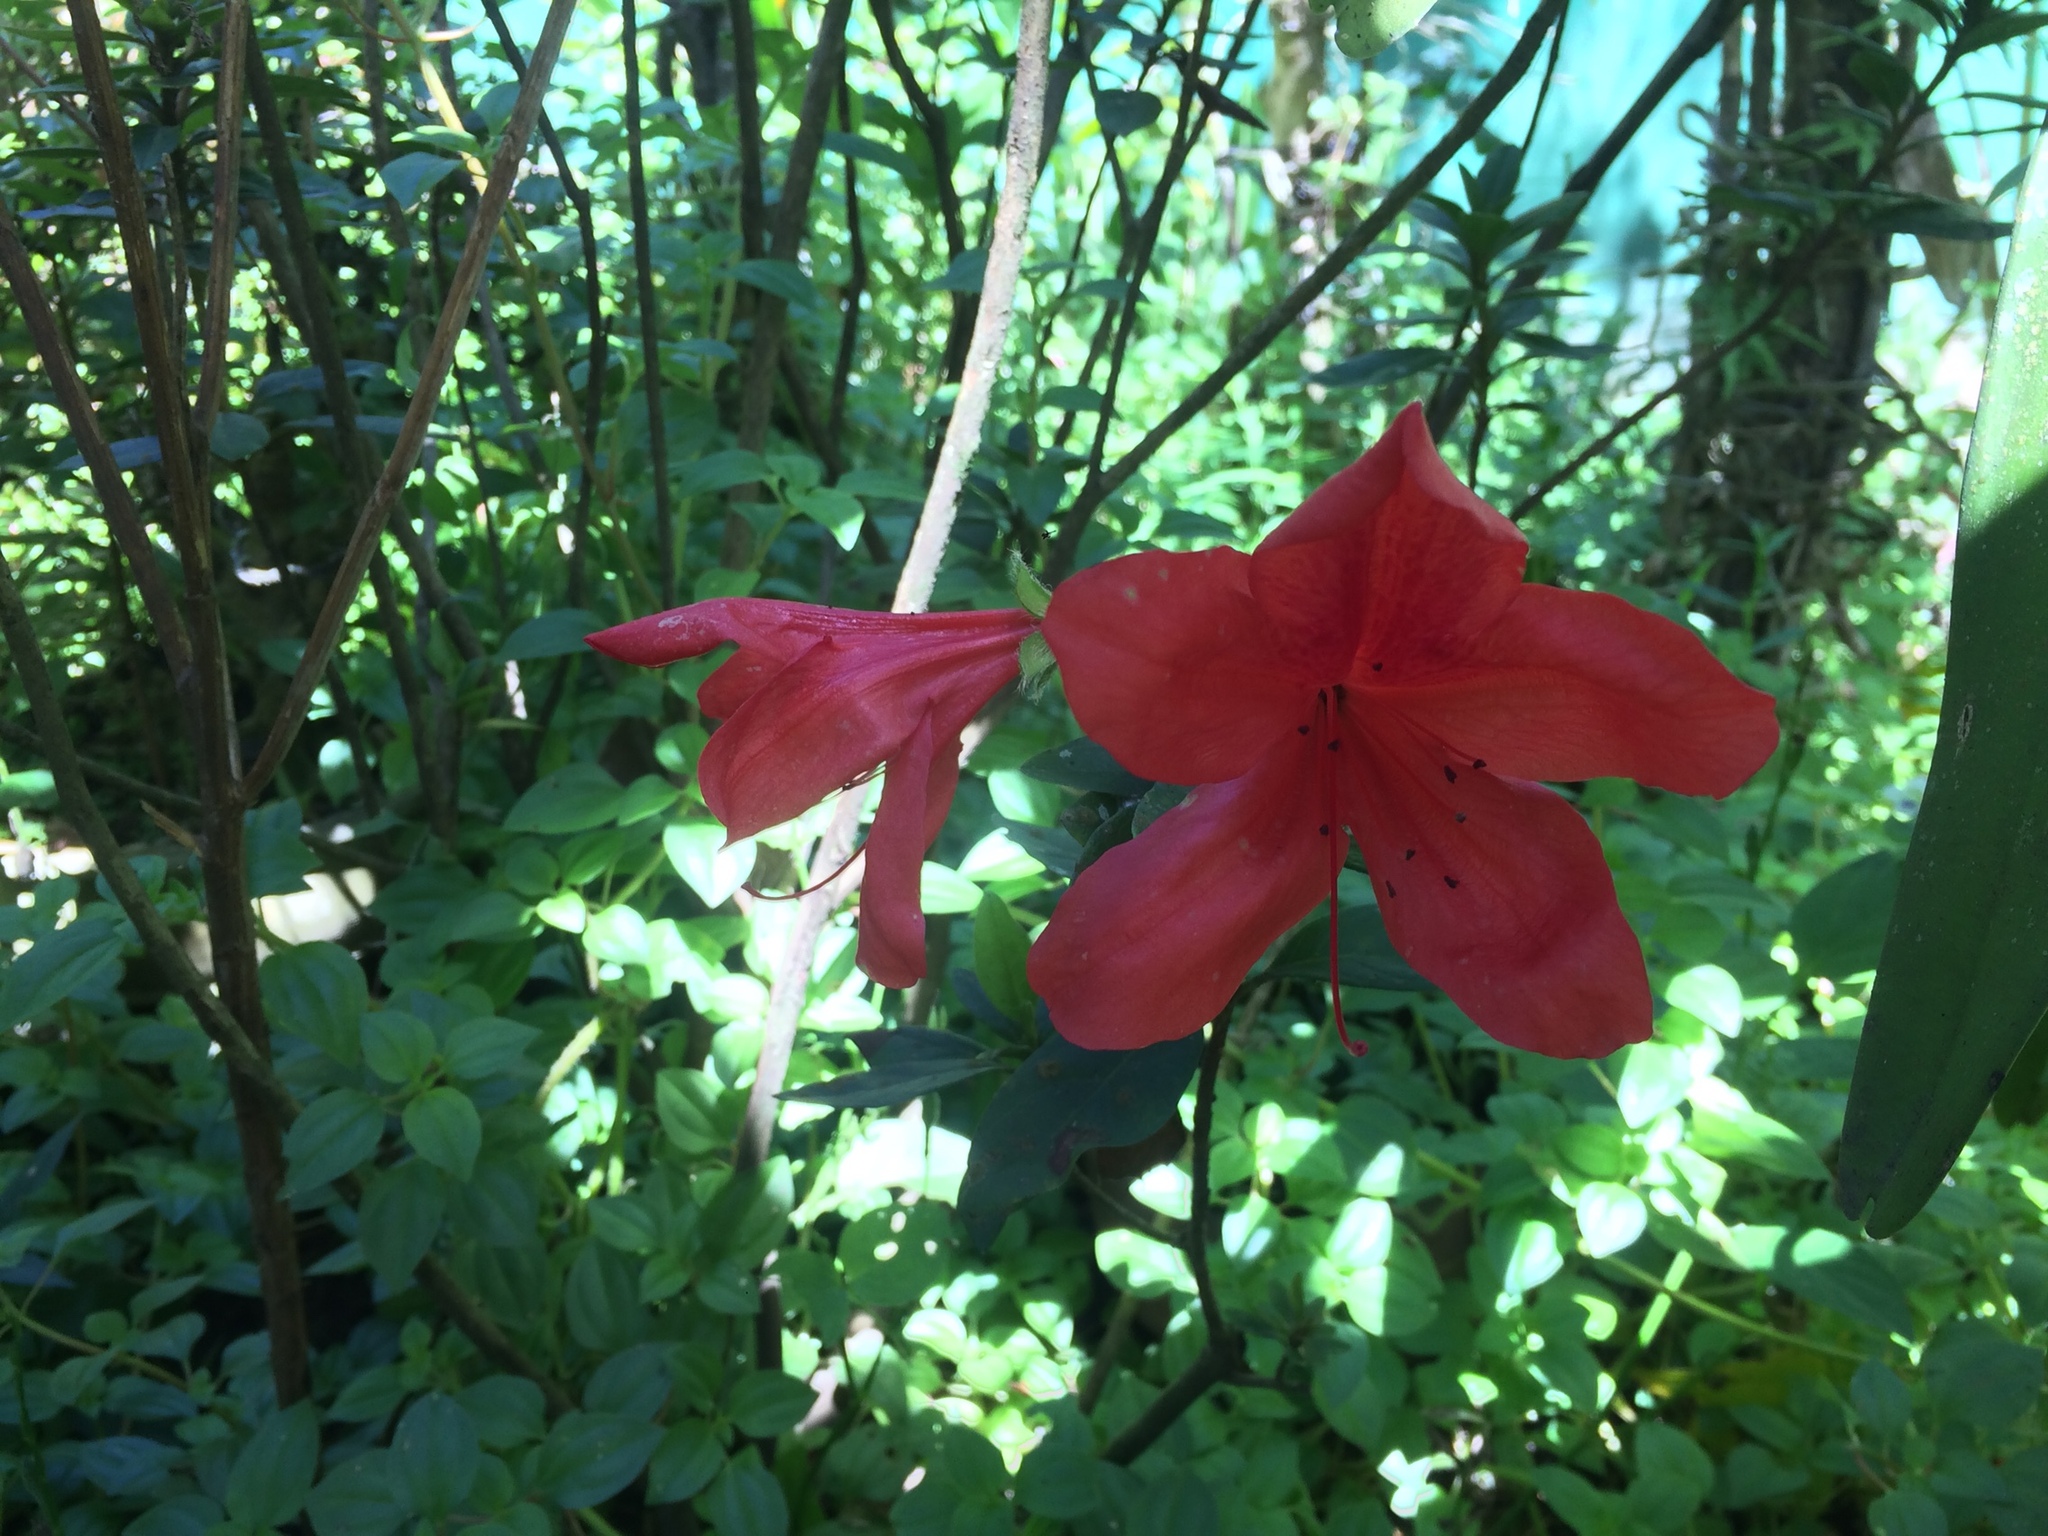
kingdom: Plantae
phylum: Tracheophyta
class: Magnoliopsida
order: Ericales
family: Ericaceae
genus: Rhododendron
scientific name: Rhododendron simsii
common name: Rhododendron
